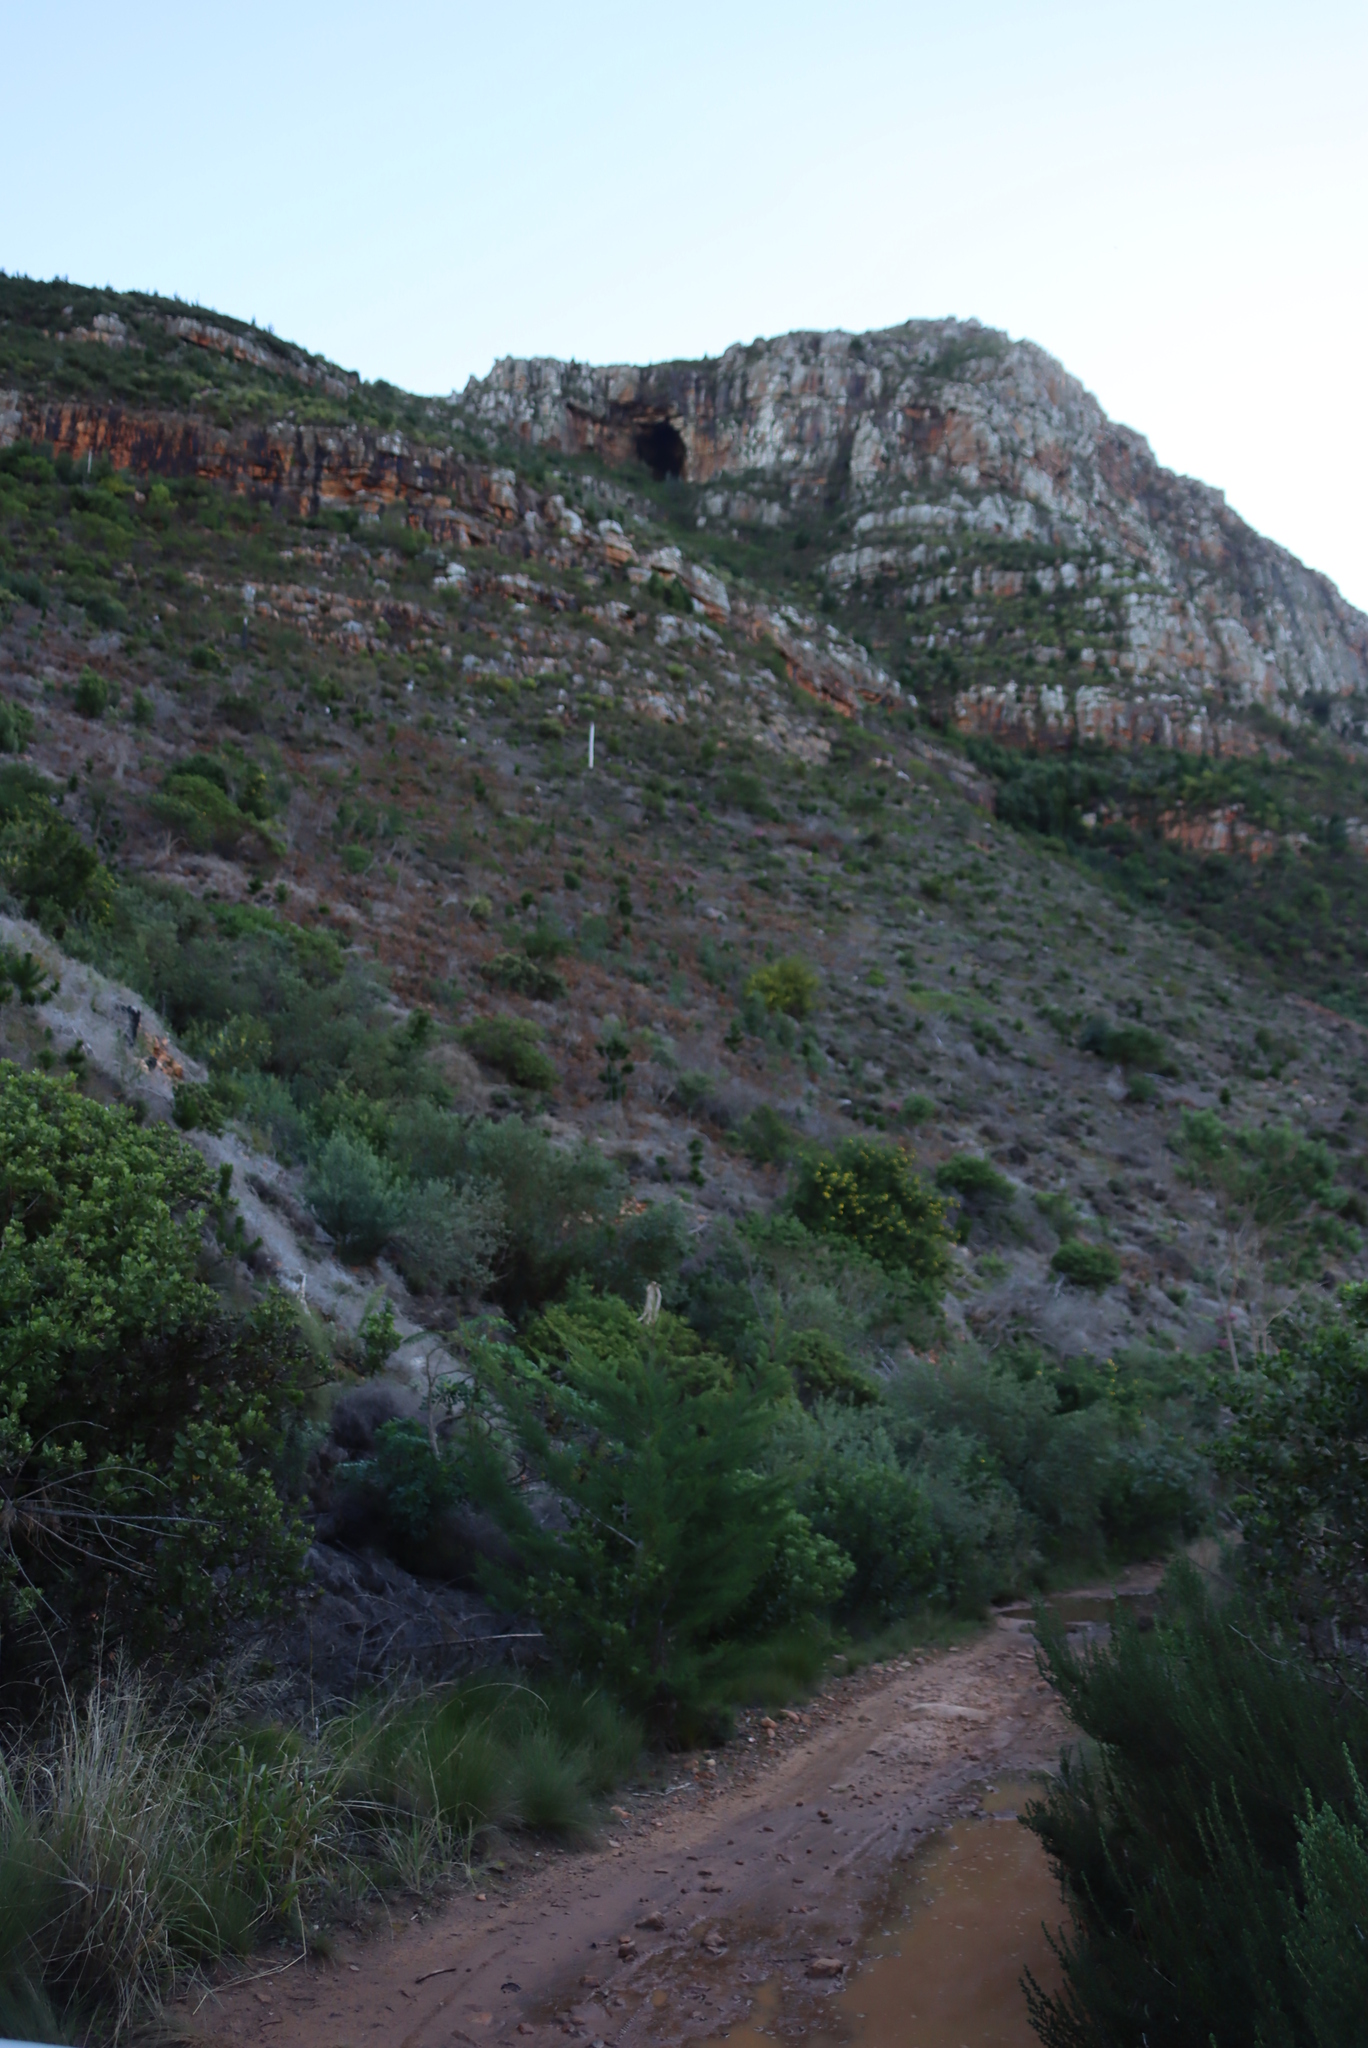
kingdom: Plantae
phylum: Tracheophyta
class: Pinopsida
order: Pinales
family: Cupressaceae
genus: Cupressus
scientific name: Cupressus lusitanica
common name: Mexican cypress
